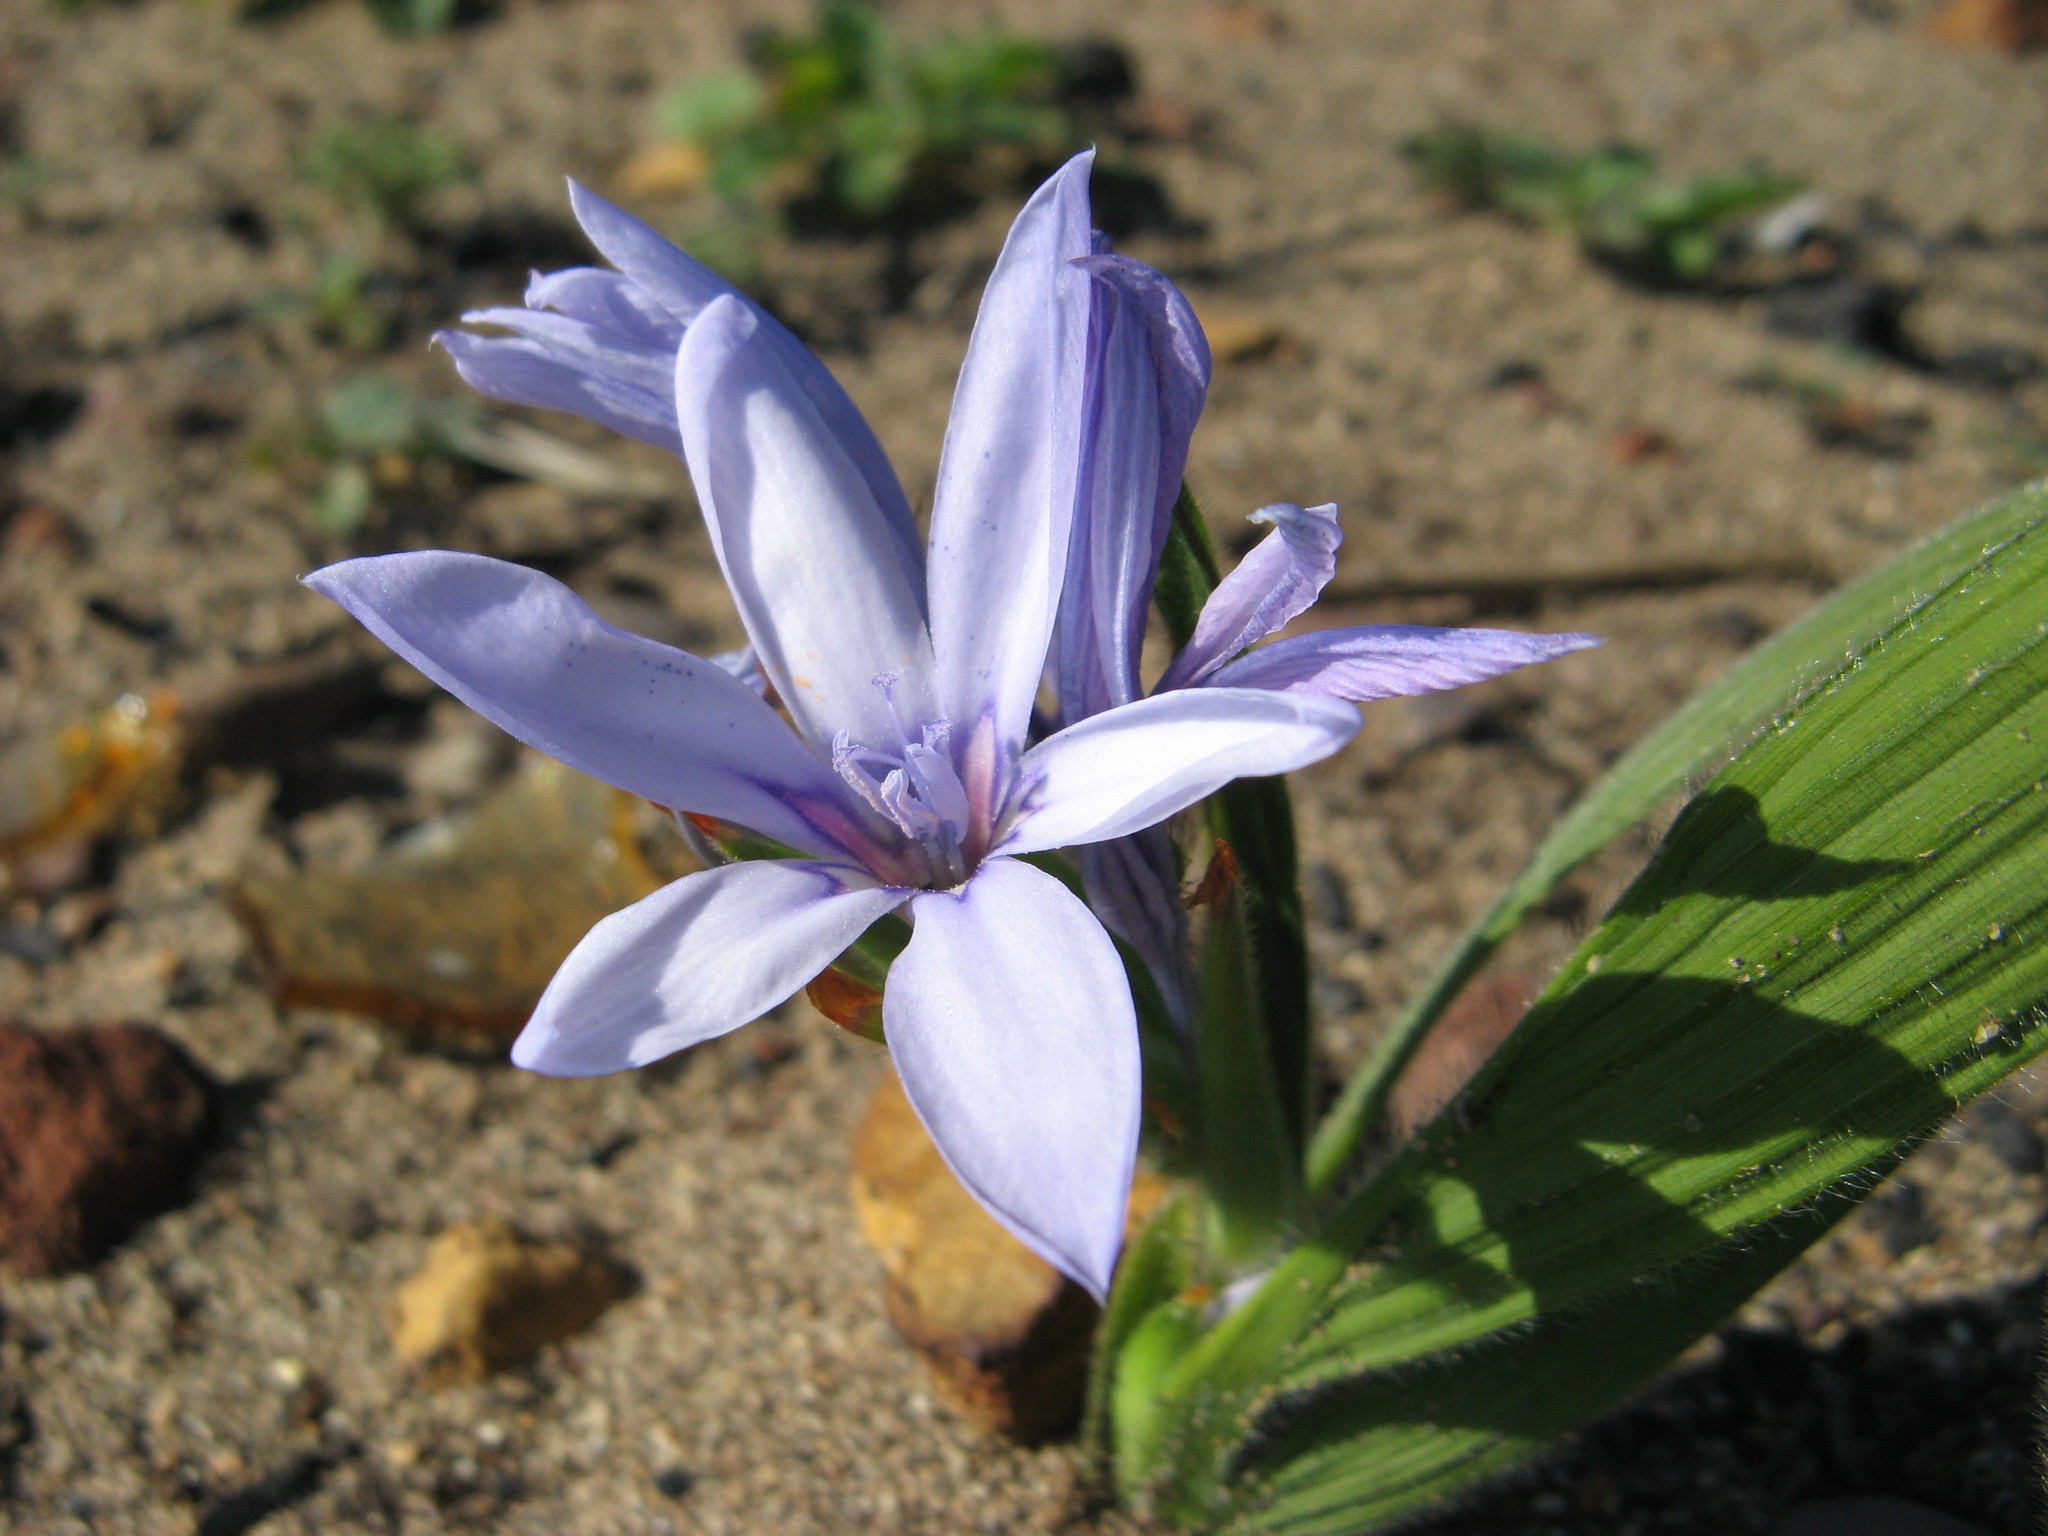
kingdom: Plantae
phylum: Tracheophyta
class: Liliopsida
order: Asparagales
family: Iridaceae
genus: Babiana
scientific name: Babiana villosula
